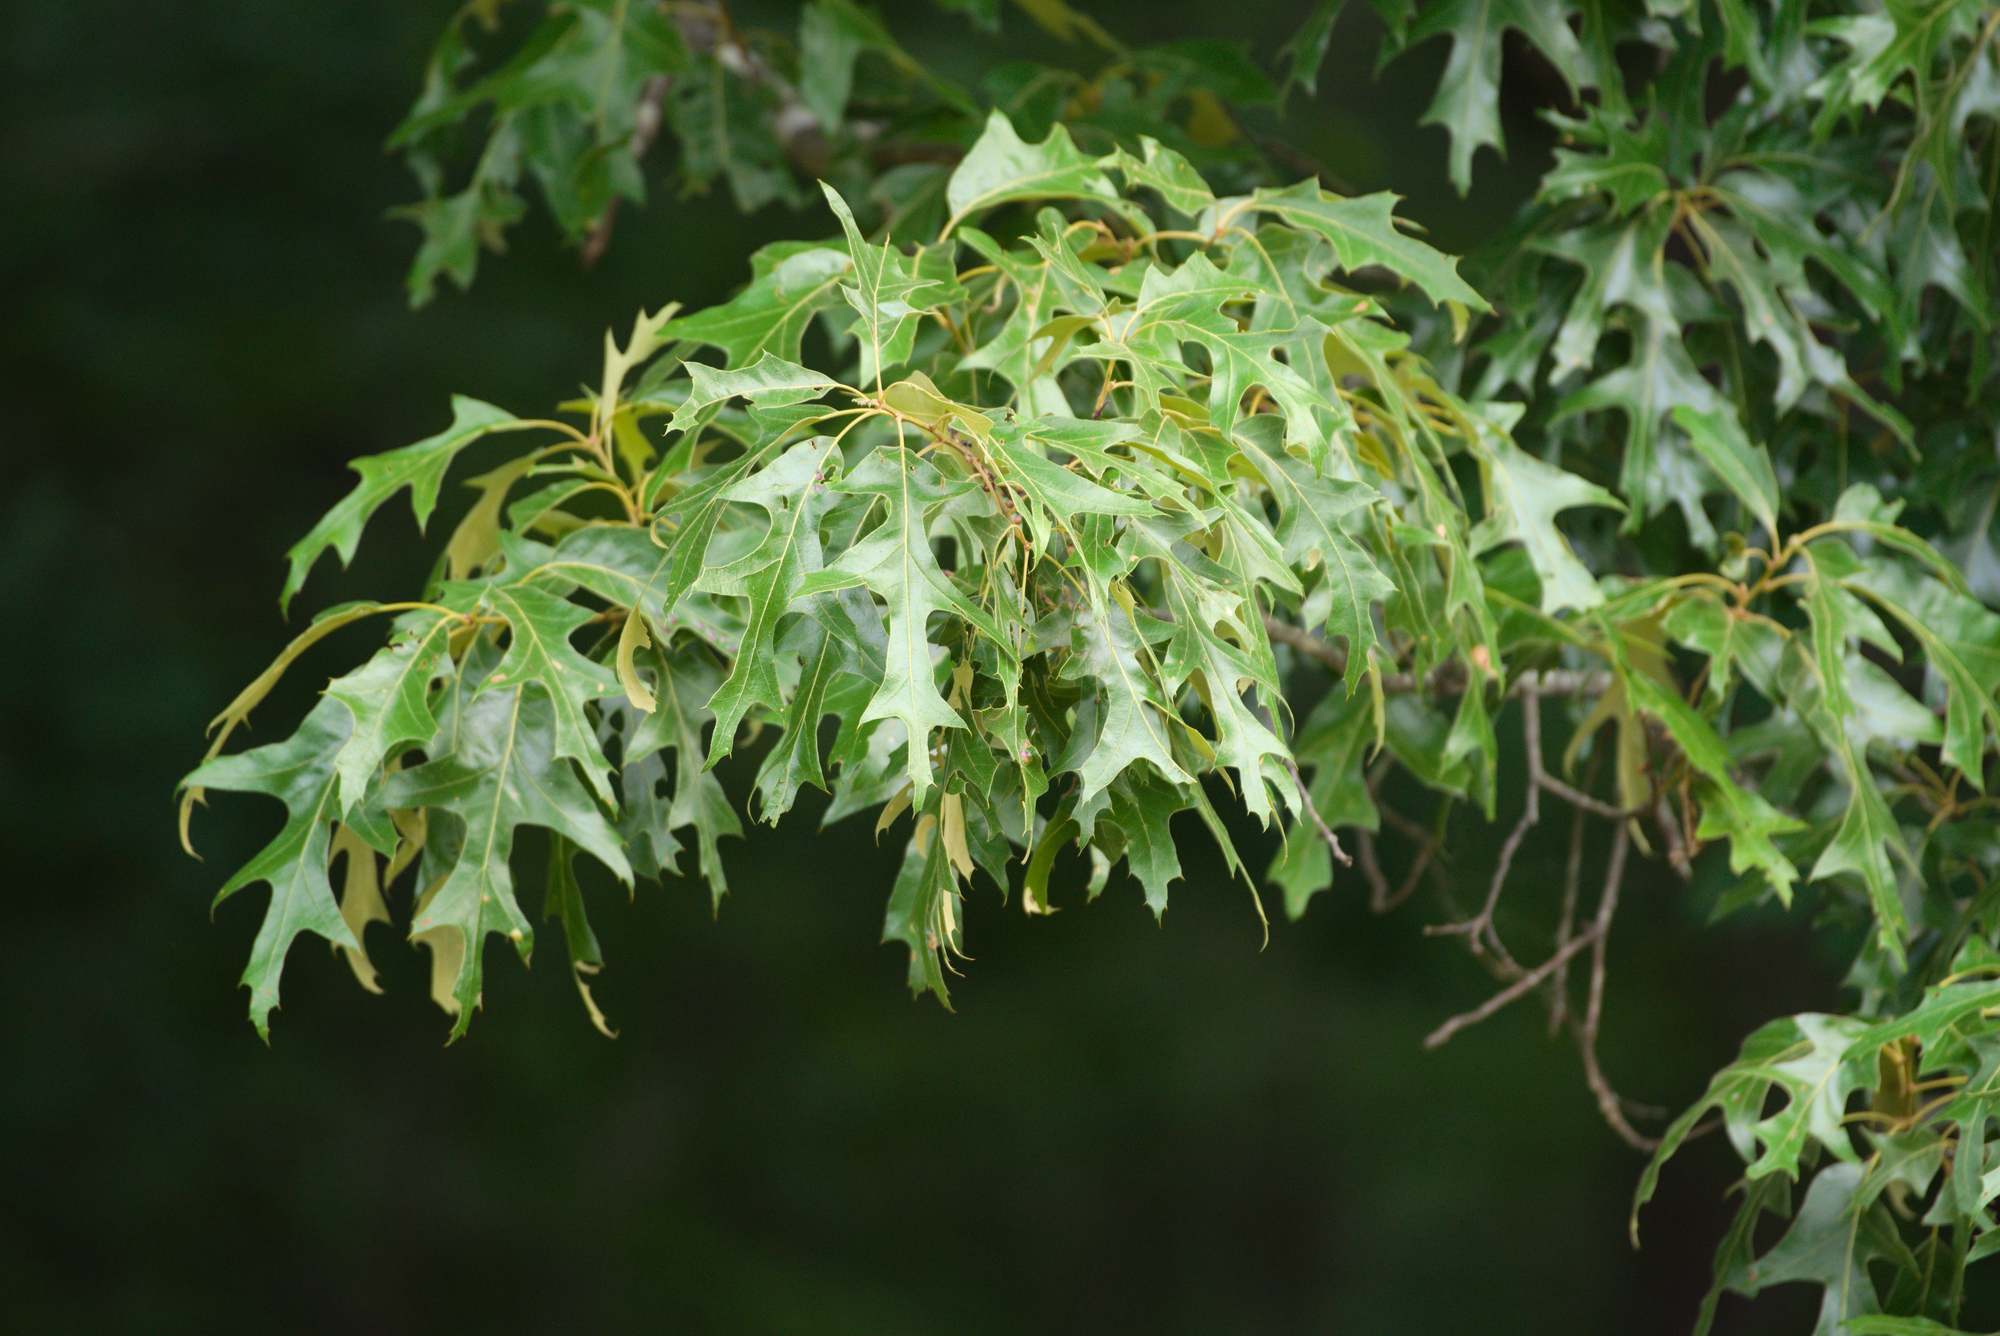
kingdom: Plantae
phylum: Tracheophyta
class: Magnoliopsida
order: Fagales
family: Fagaceae
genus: Quercus
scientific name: Quercus falcata
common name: Southern red oak
